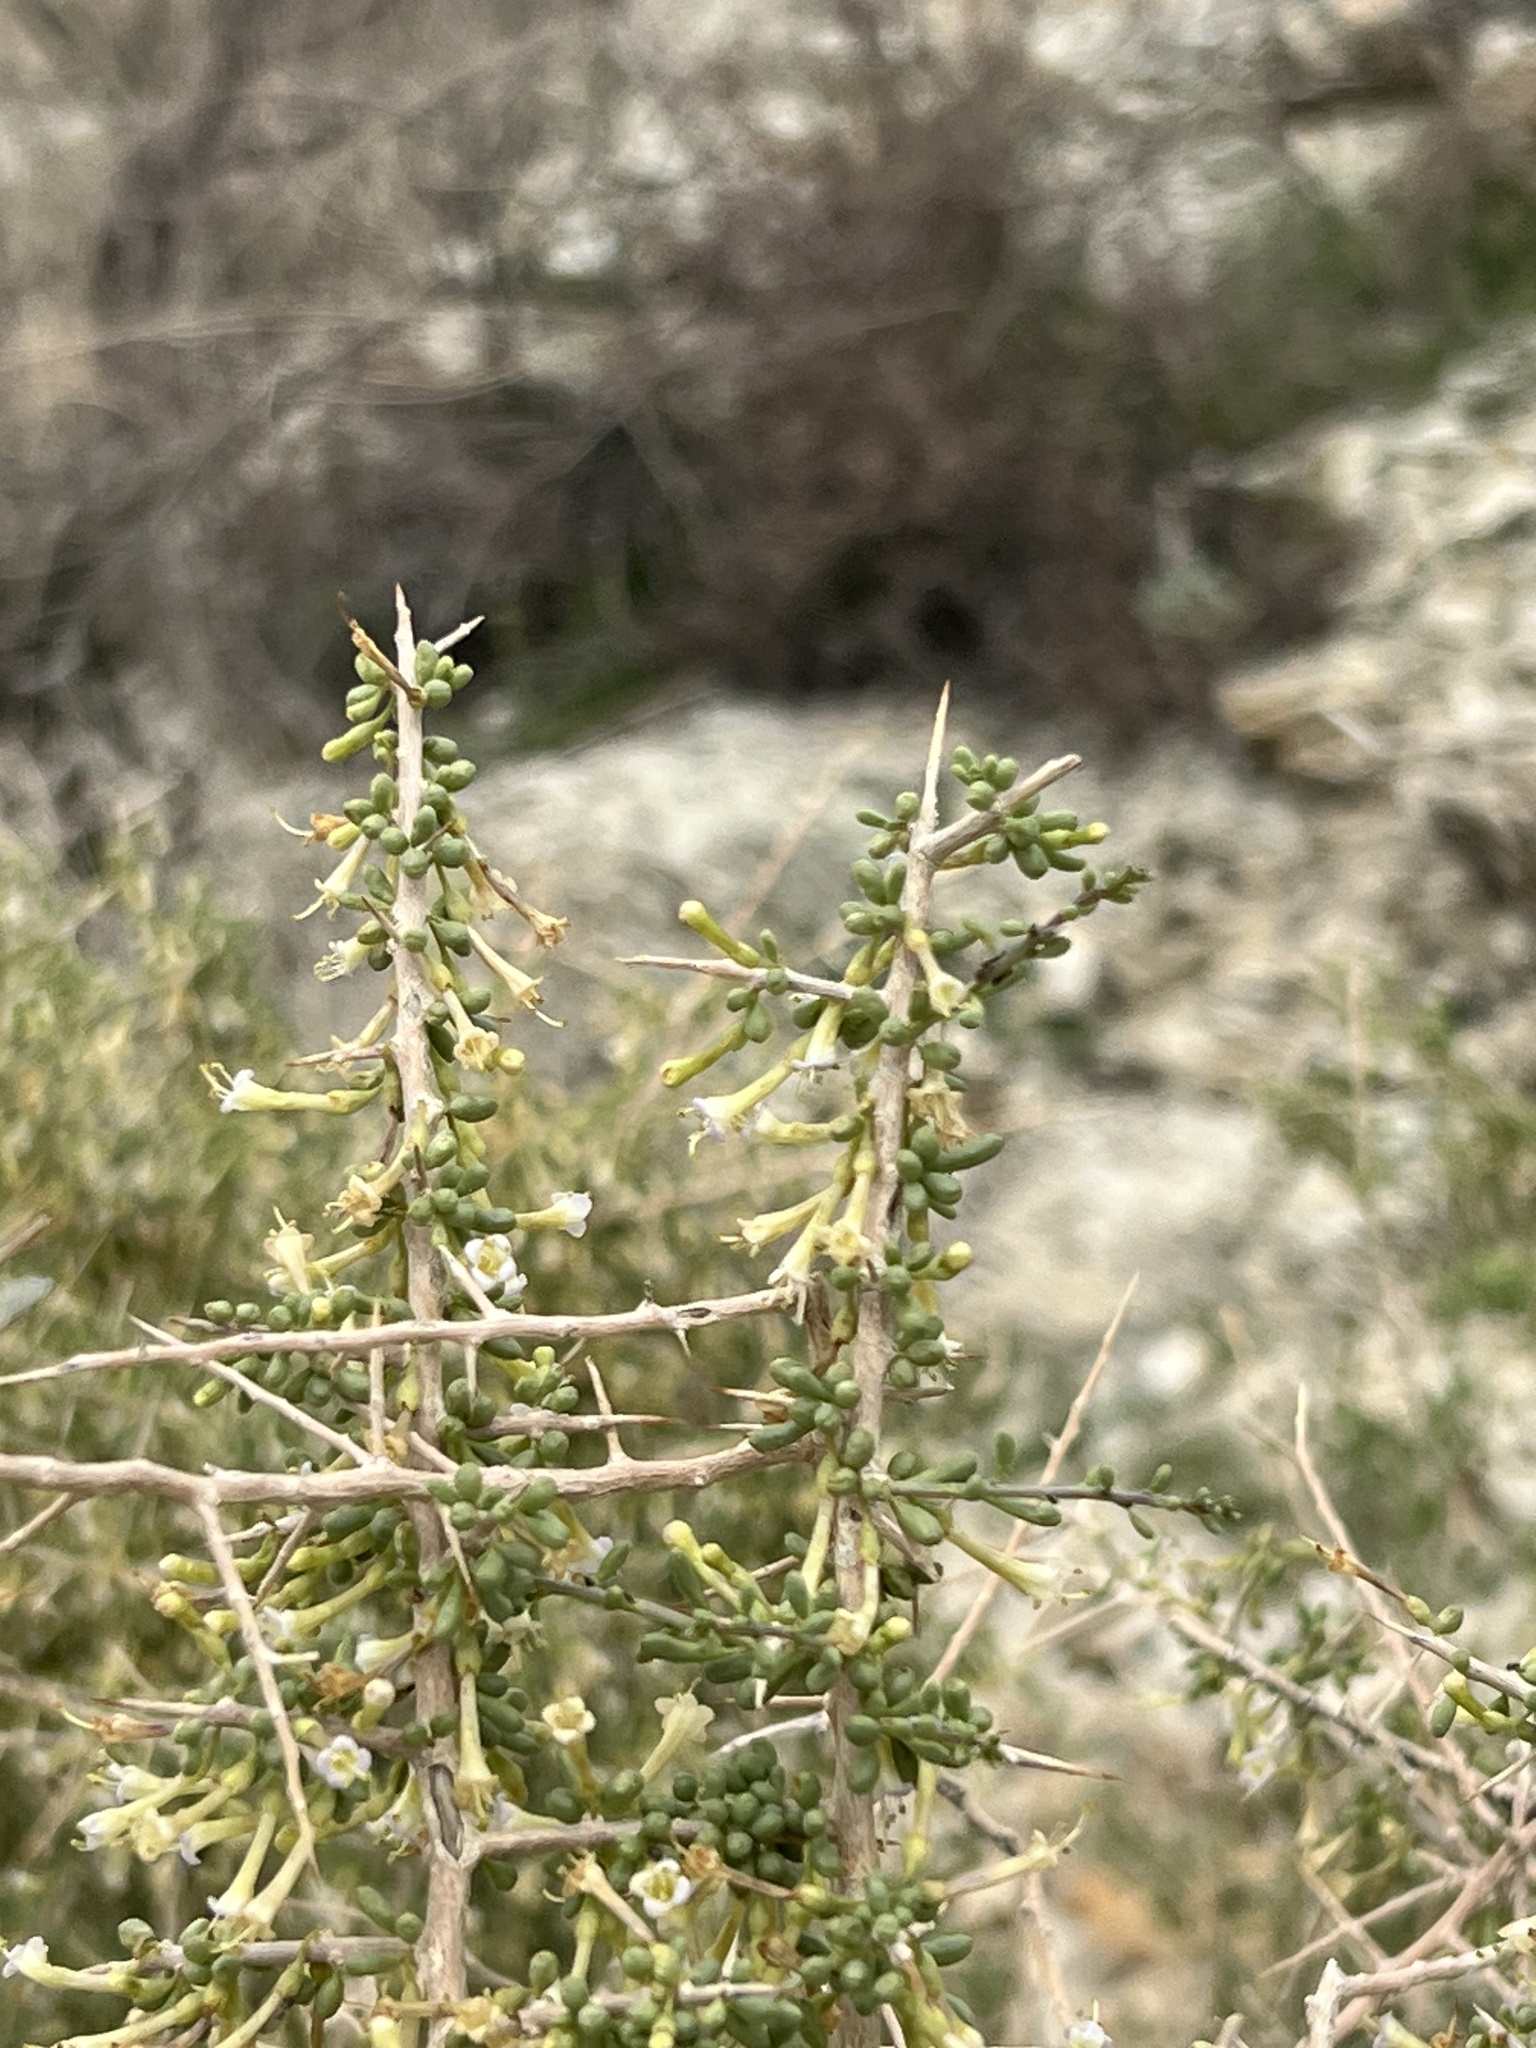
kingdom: Plantae
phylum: Tracheophyta
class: Magnoliopsida
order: Solanales
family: Solanaceae
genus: Lycium
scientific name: Lycium andersonii
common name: Water-jacket
